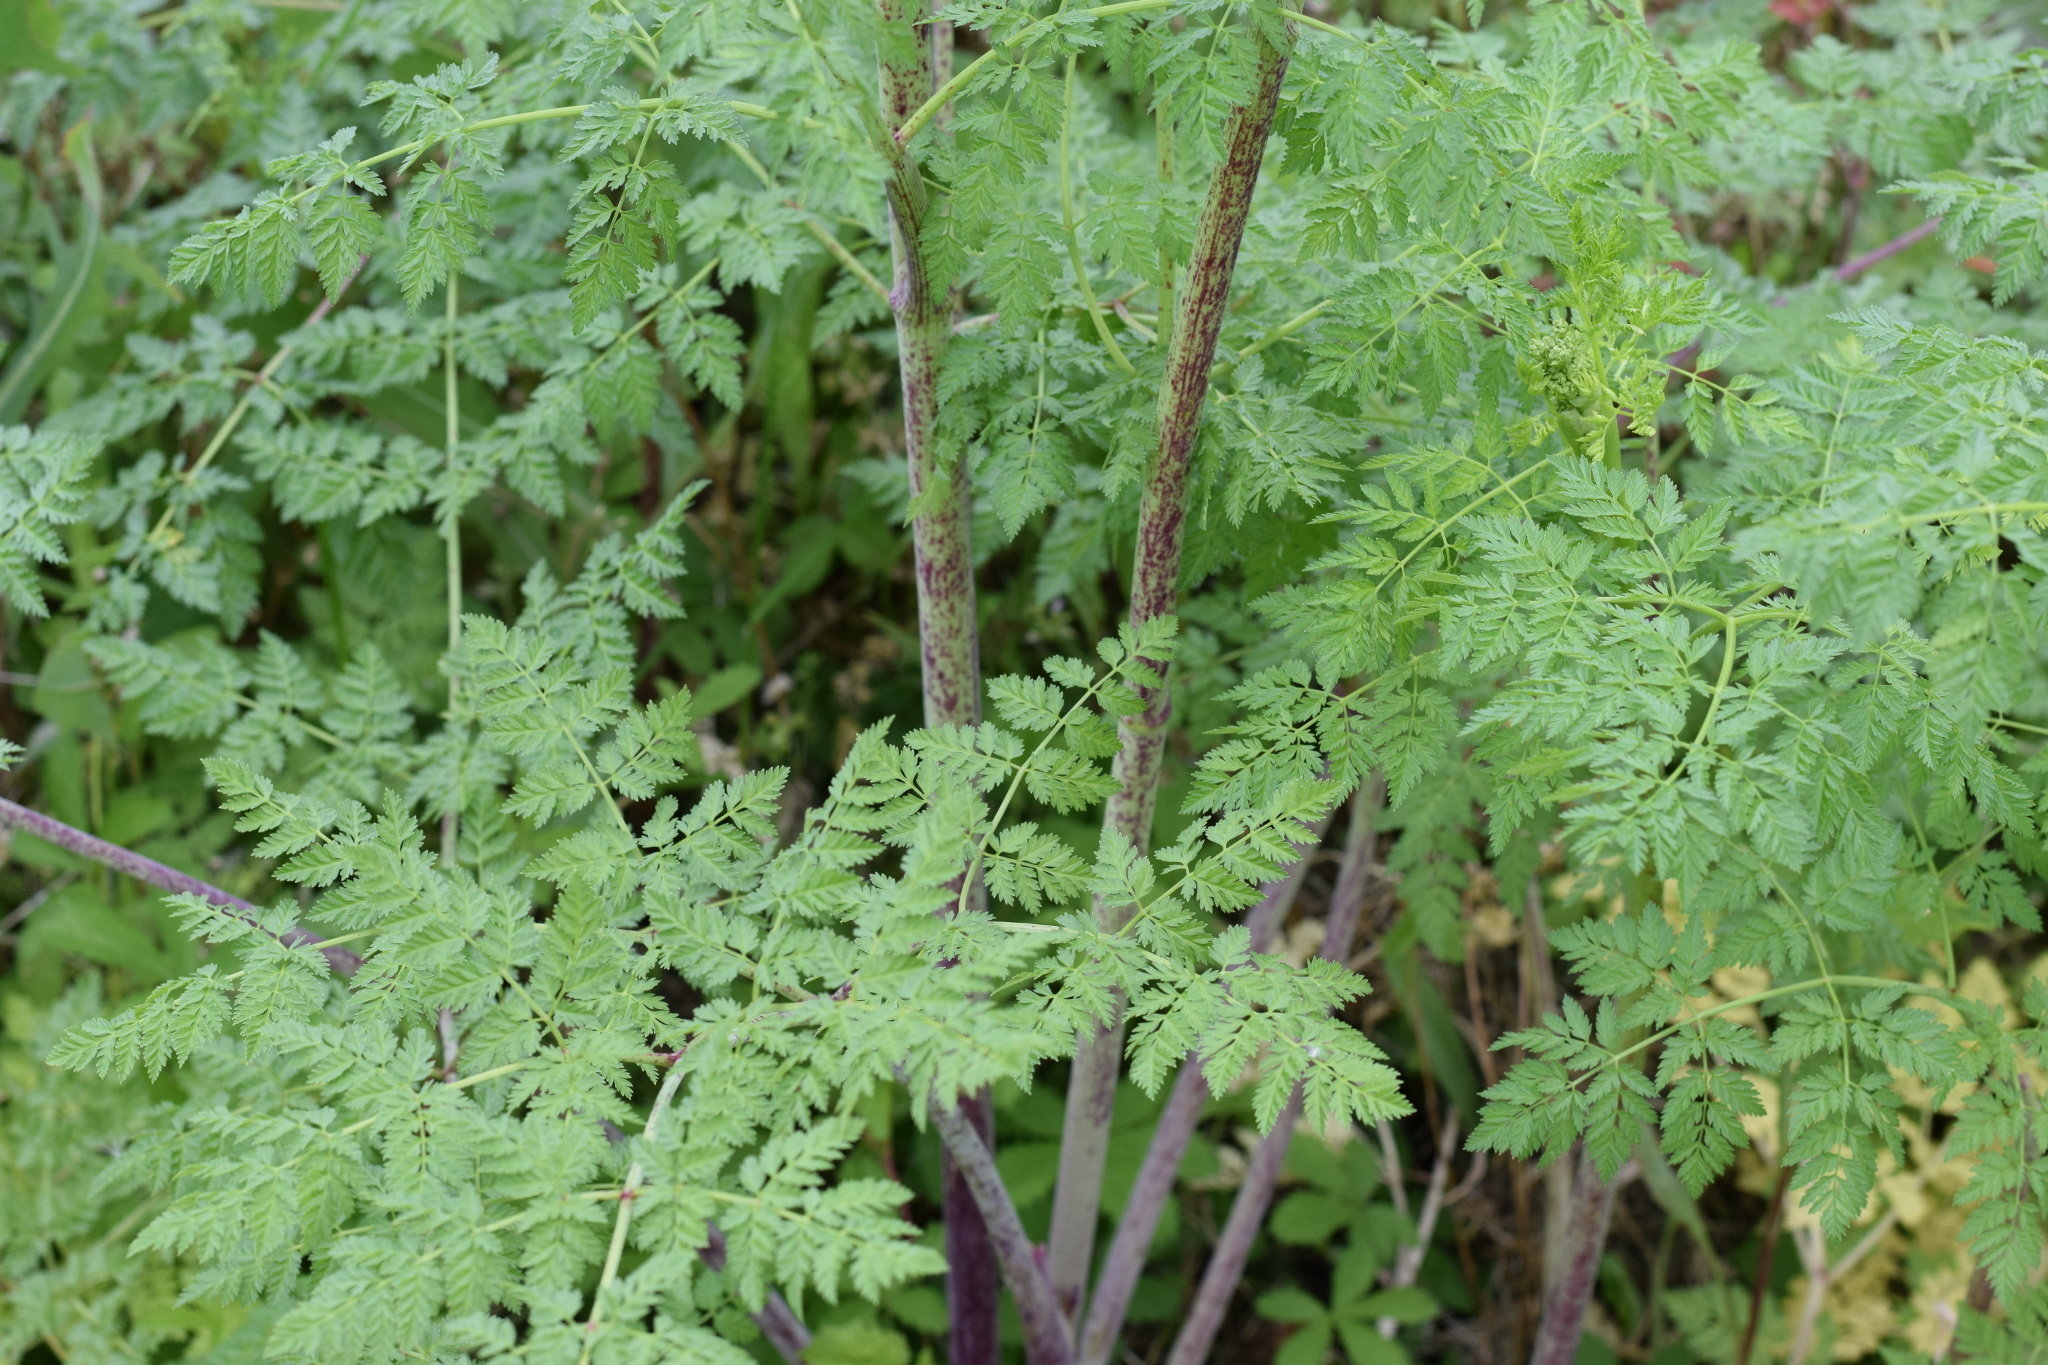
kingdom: Plantae
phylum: Tracheophyta
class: Magnoliopsida
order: Apiales
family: Apiaceae
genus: Conium
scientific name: Conium maculatum
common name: Hemlock
